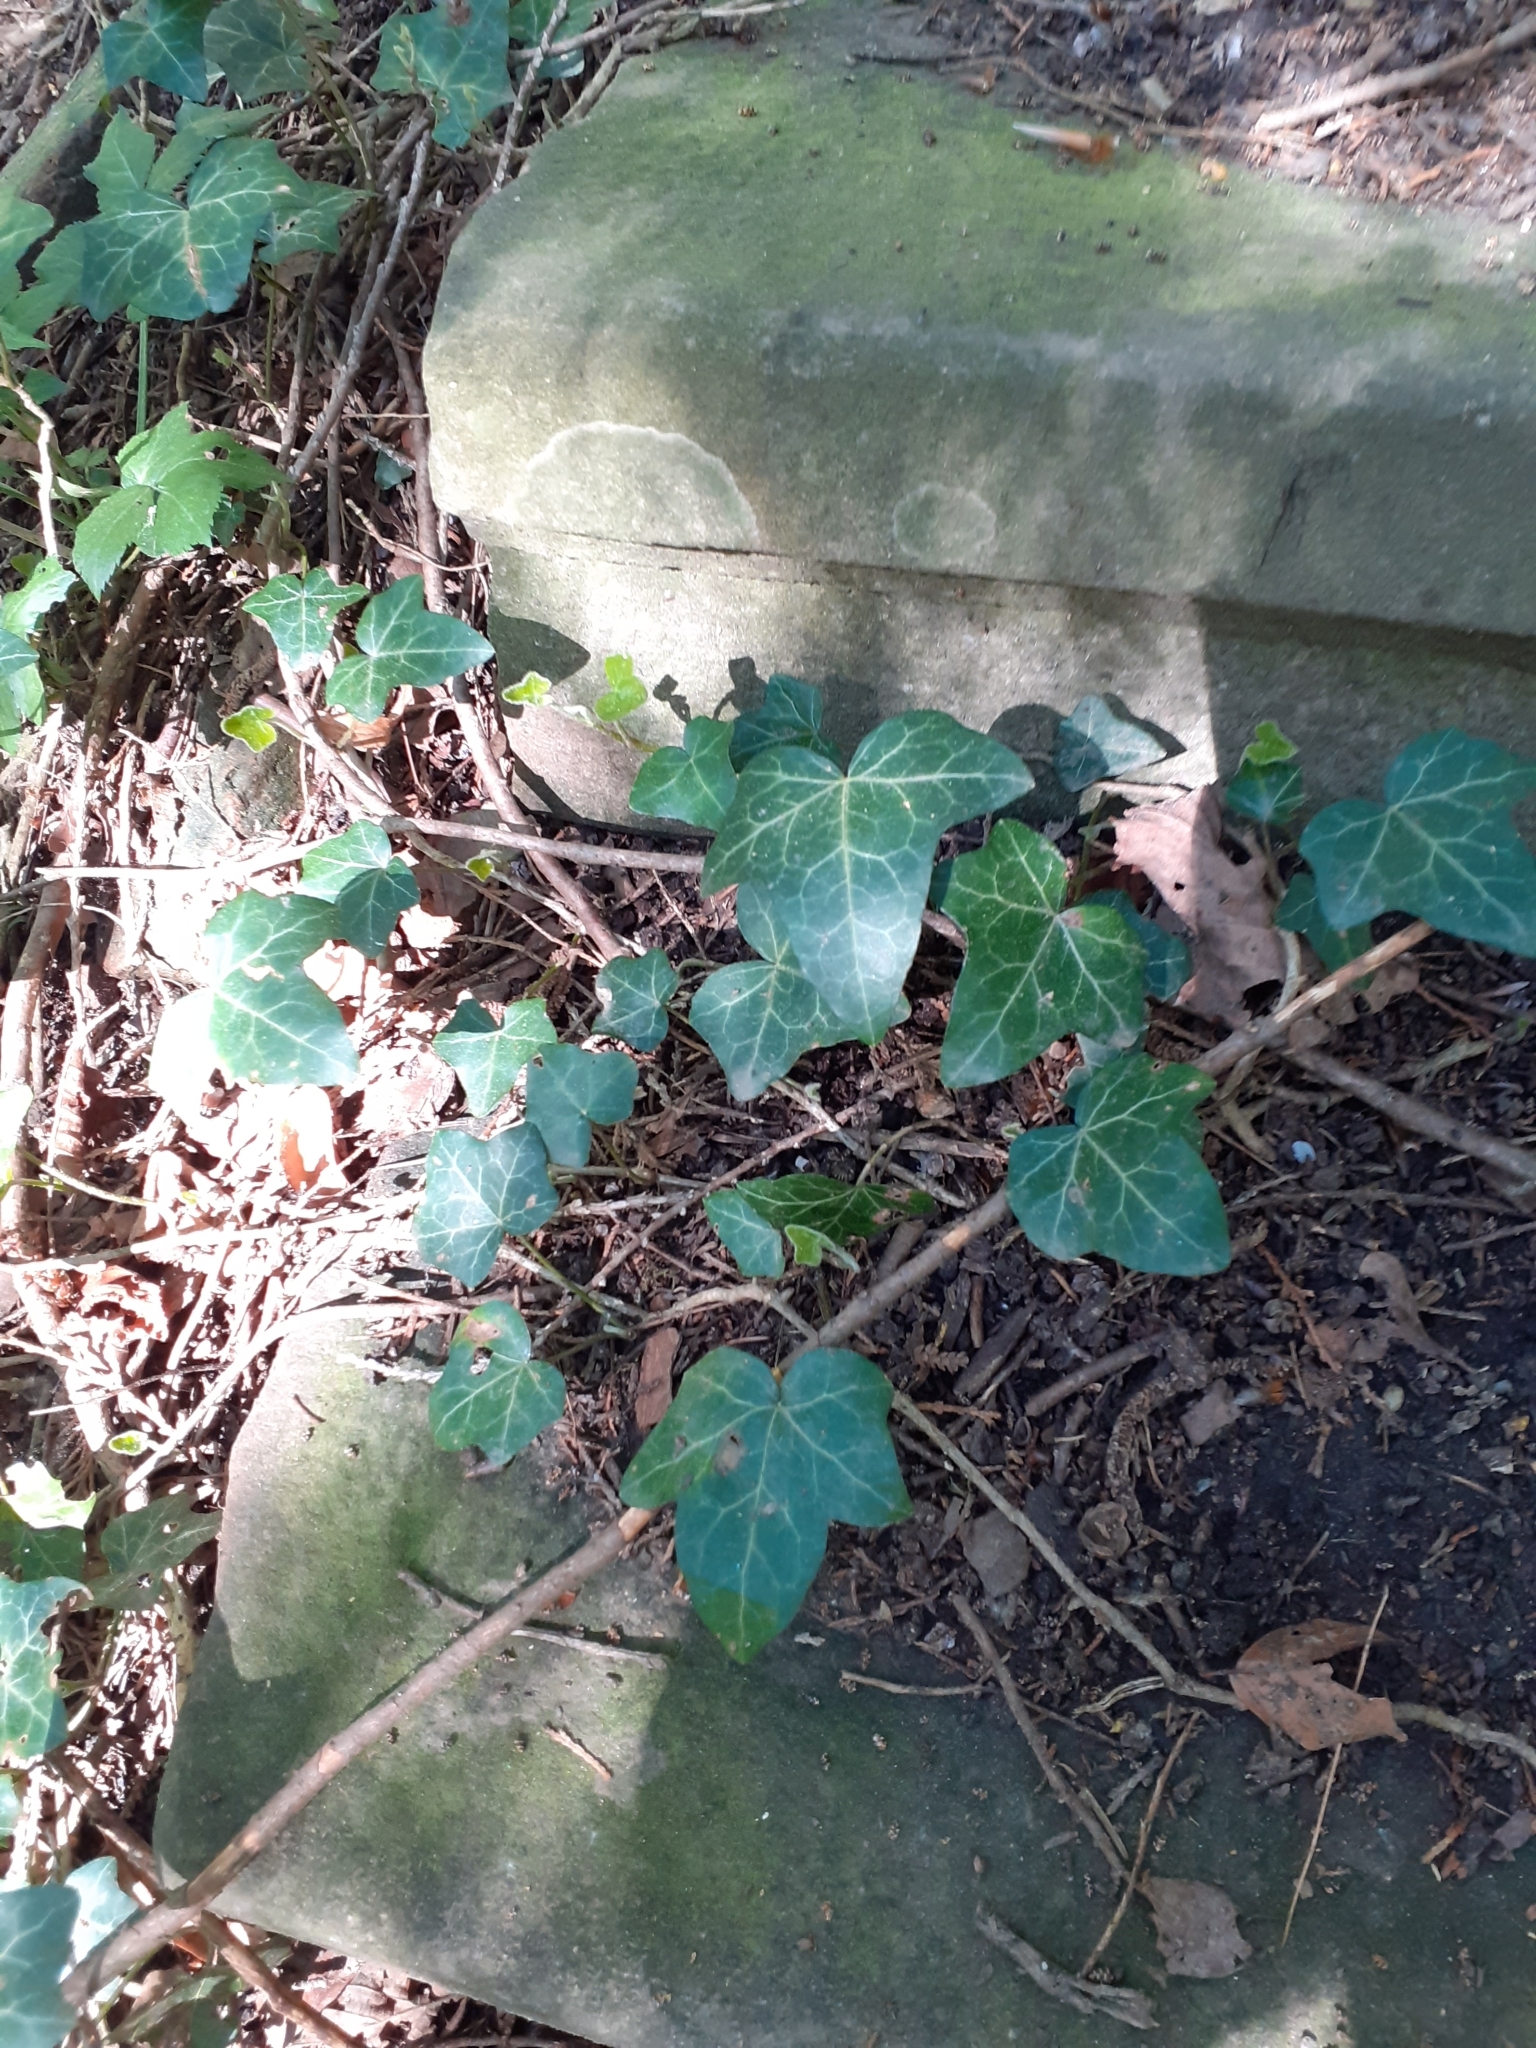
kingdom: Plantae
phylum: Tracheophyta
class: Magnoliopsida
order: Apiales
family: Araliaceae
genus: Hedera
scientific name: Hedera helix
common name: Ivy
